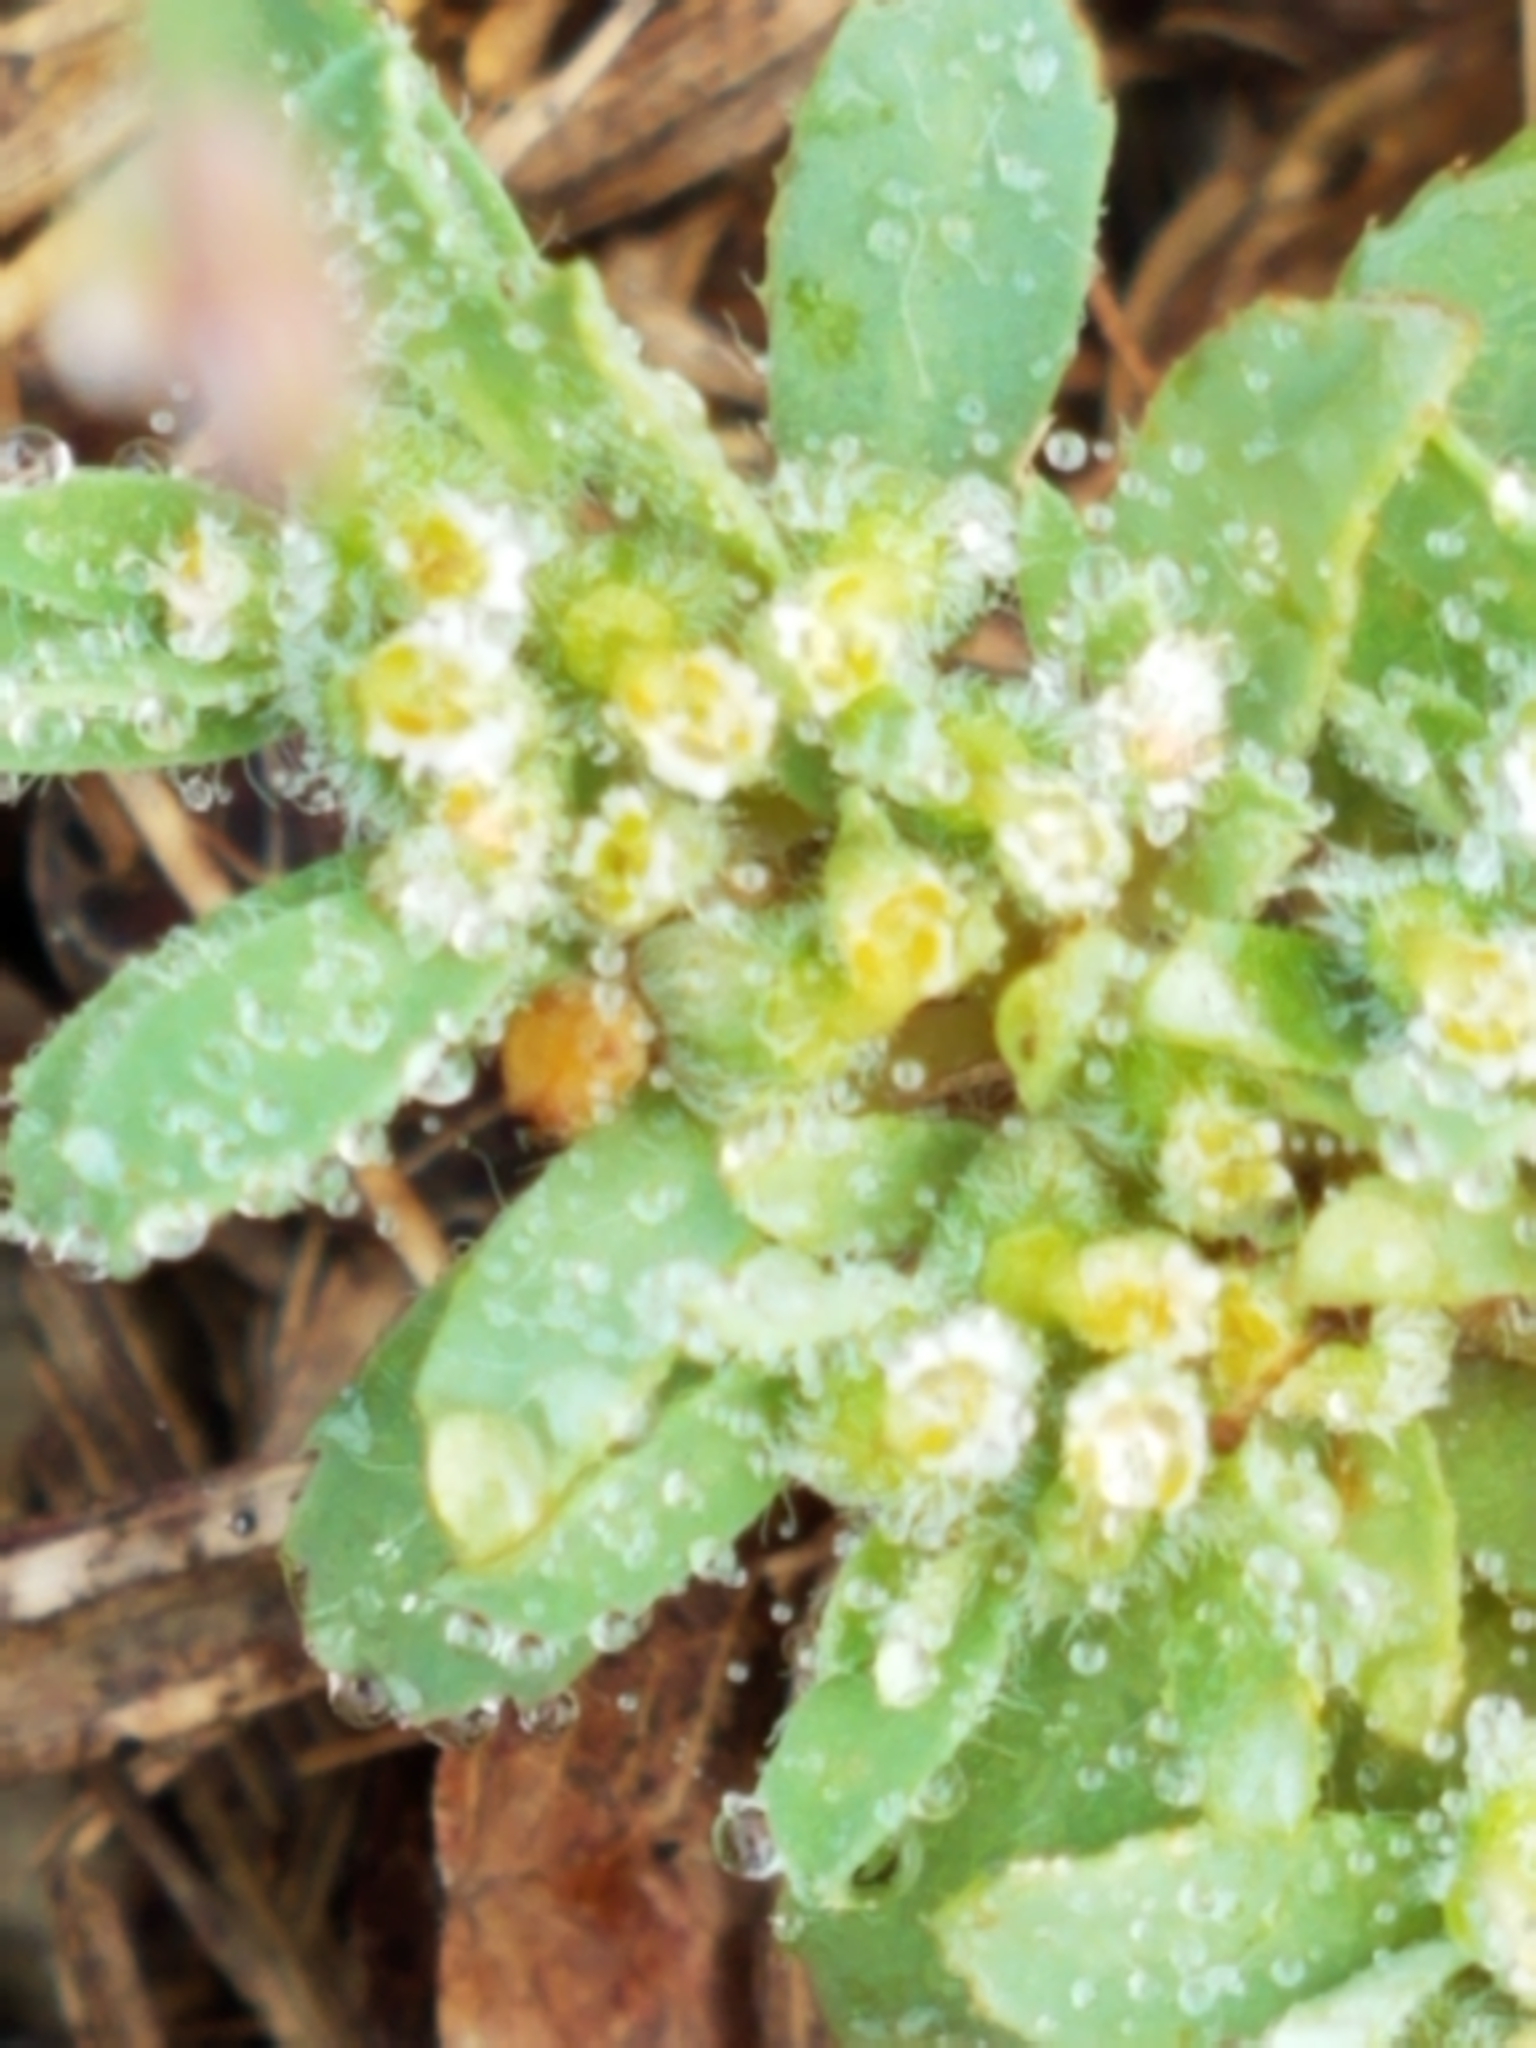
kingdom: Plantae
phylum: Tracheophyta
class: Magnoliopsida
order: Malpighiales
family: Euphorbiaceae
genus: Euphorbia
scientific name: Euphorbia stictospora
